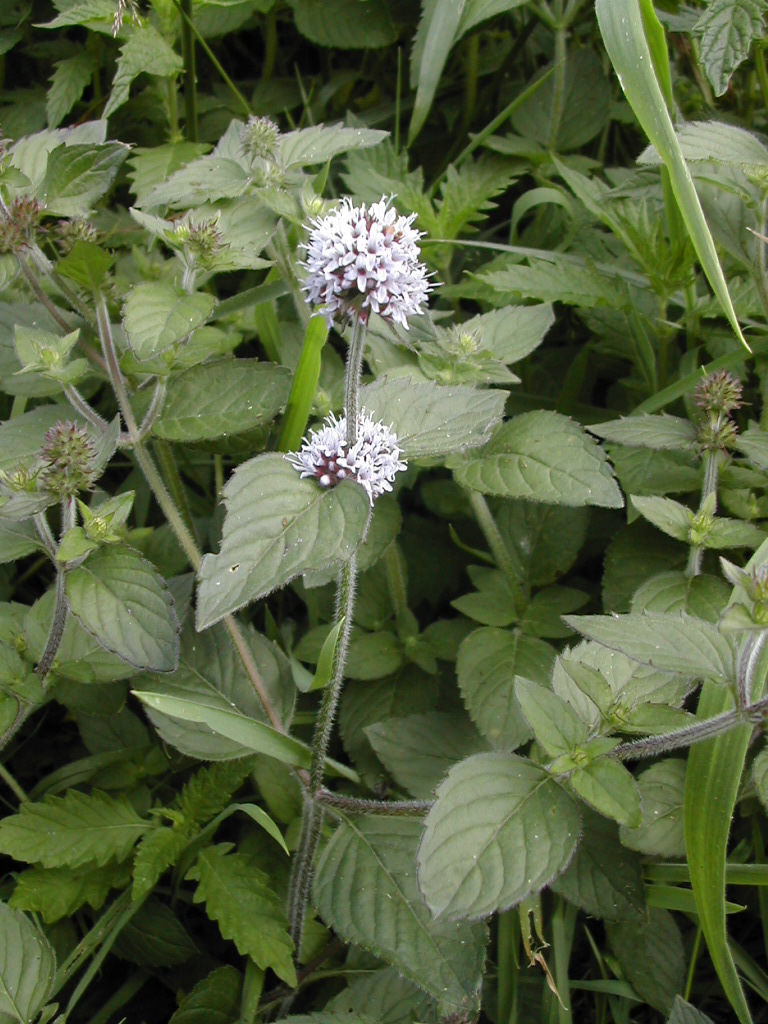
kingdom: Plantae
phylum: Tracheophyta
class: Magnoliopsida
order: Lamiales
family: Lamiaceae
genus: Mentha
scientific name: Mentha aquatica
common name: Water mint
